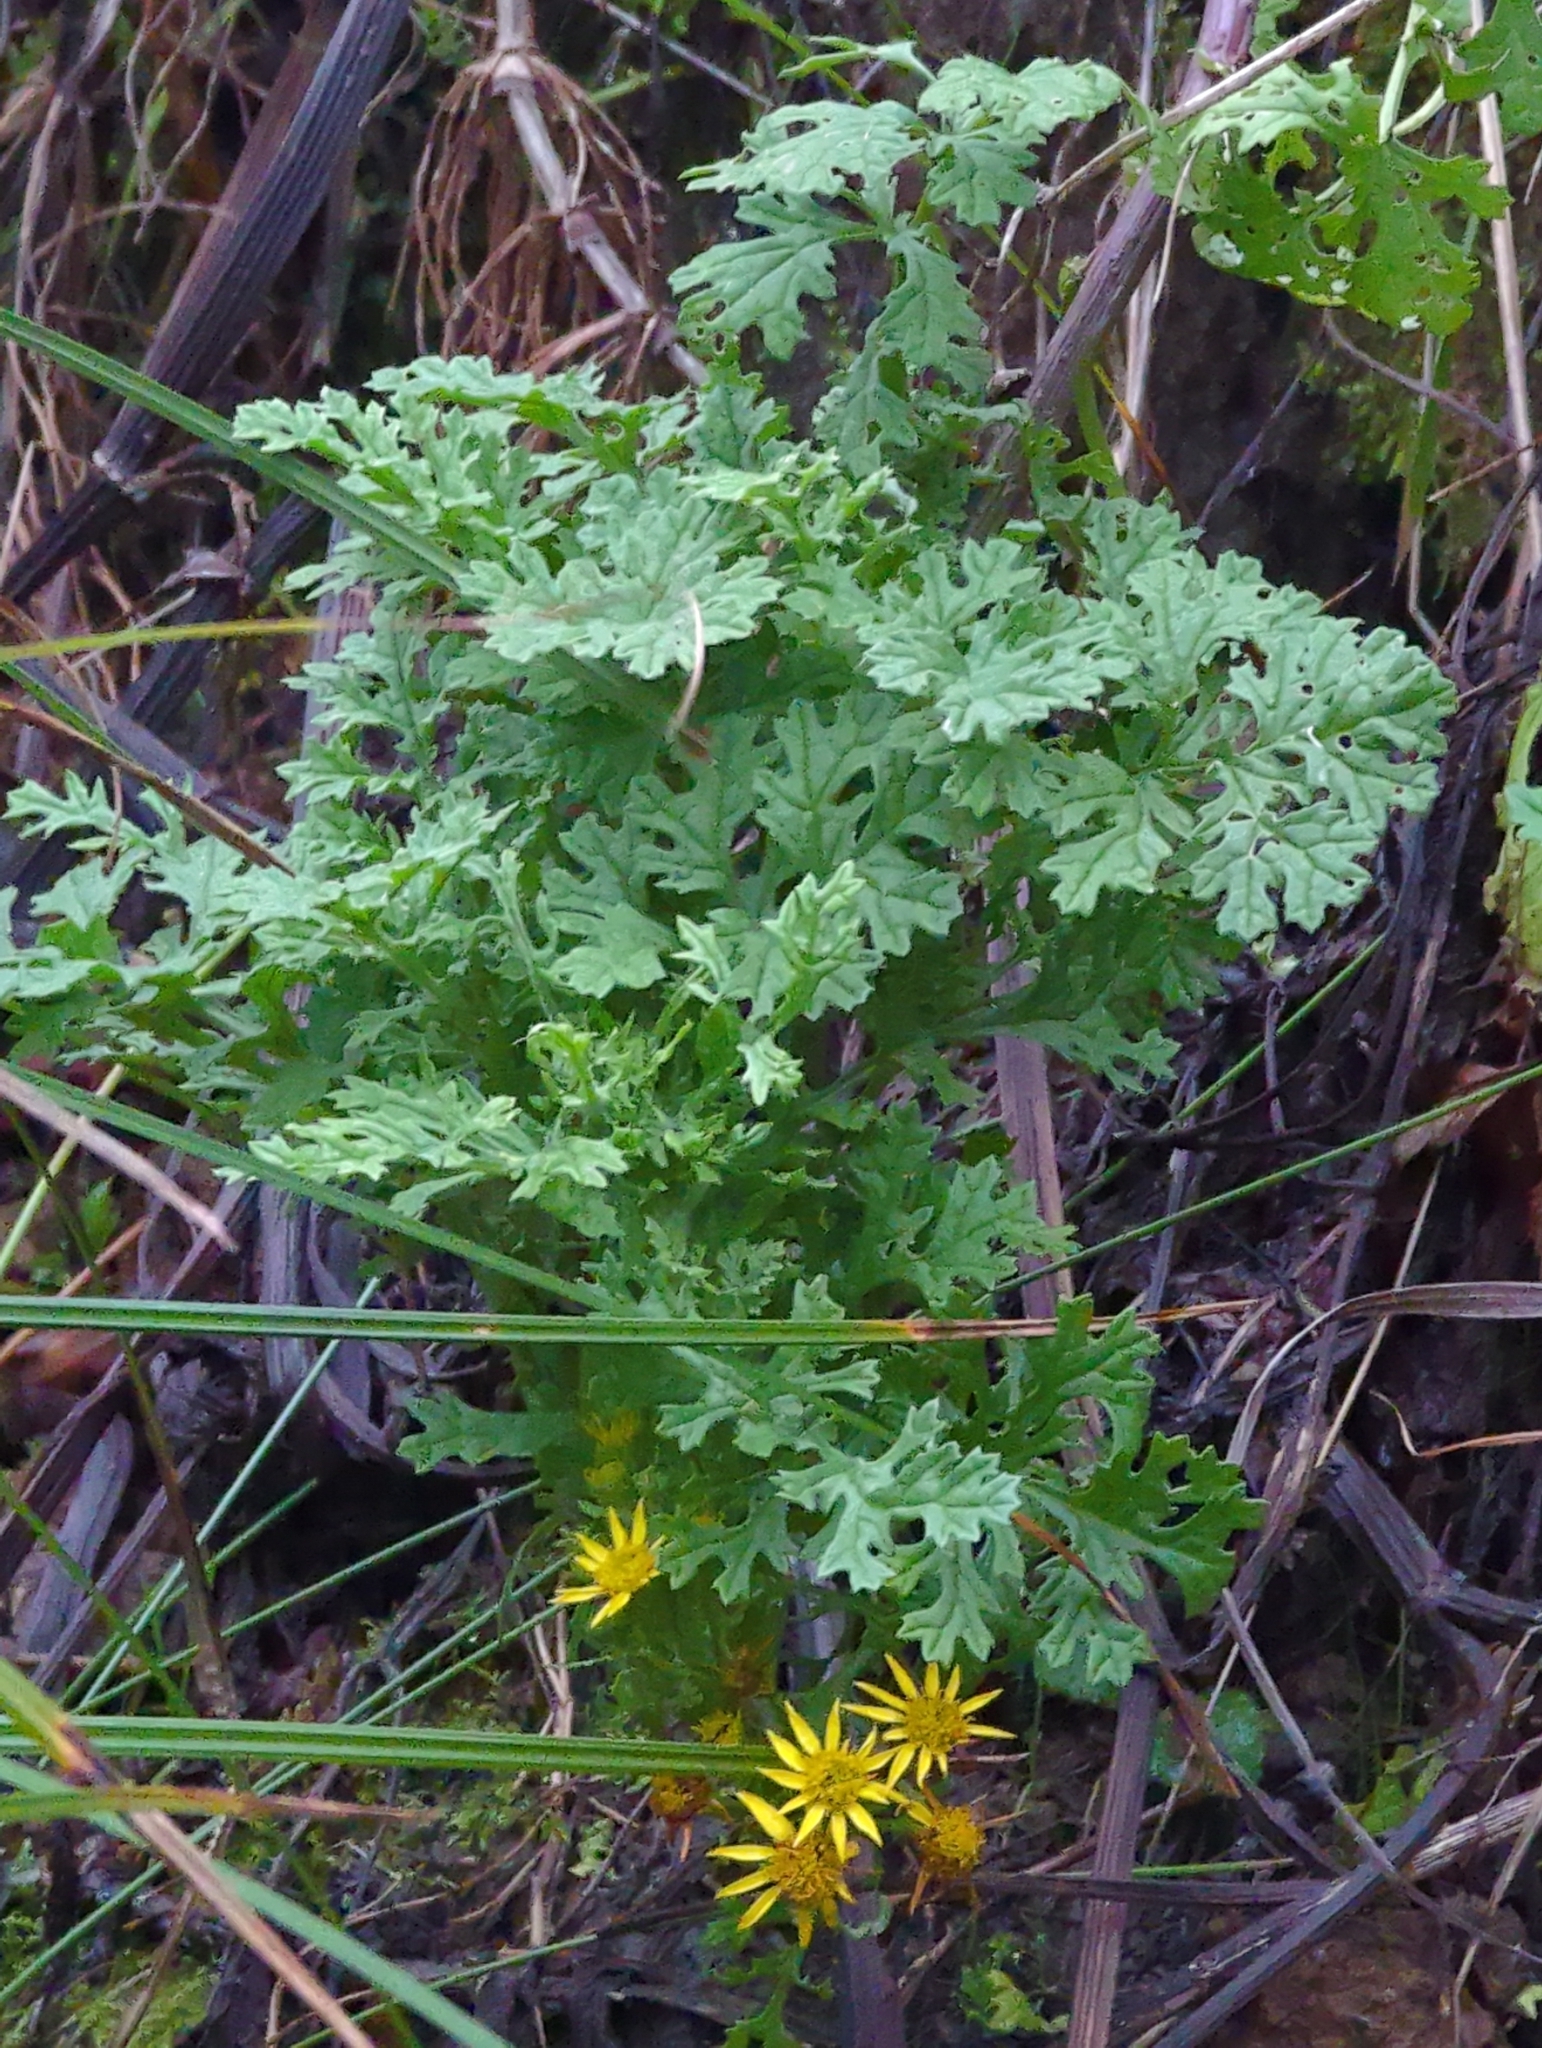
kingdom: Plantae
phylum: Tracheophyta
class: Magnoliopsida
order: Asterales
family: Asteraceae
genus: Jacobaea
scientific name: Jacobaea vulgaris
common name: Stinking willie
